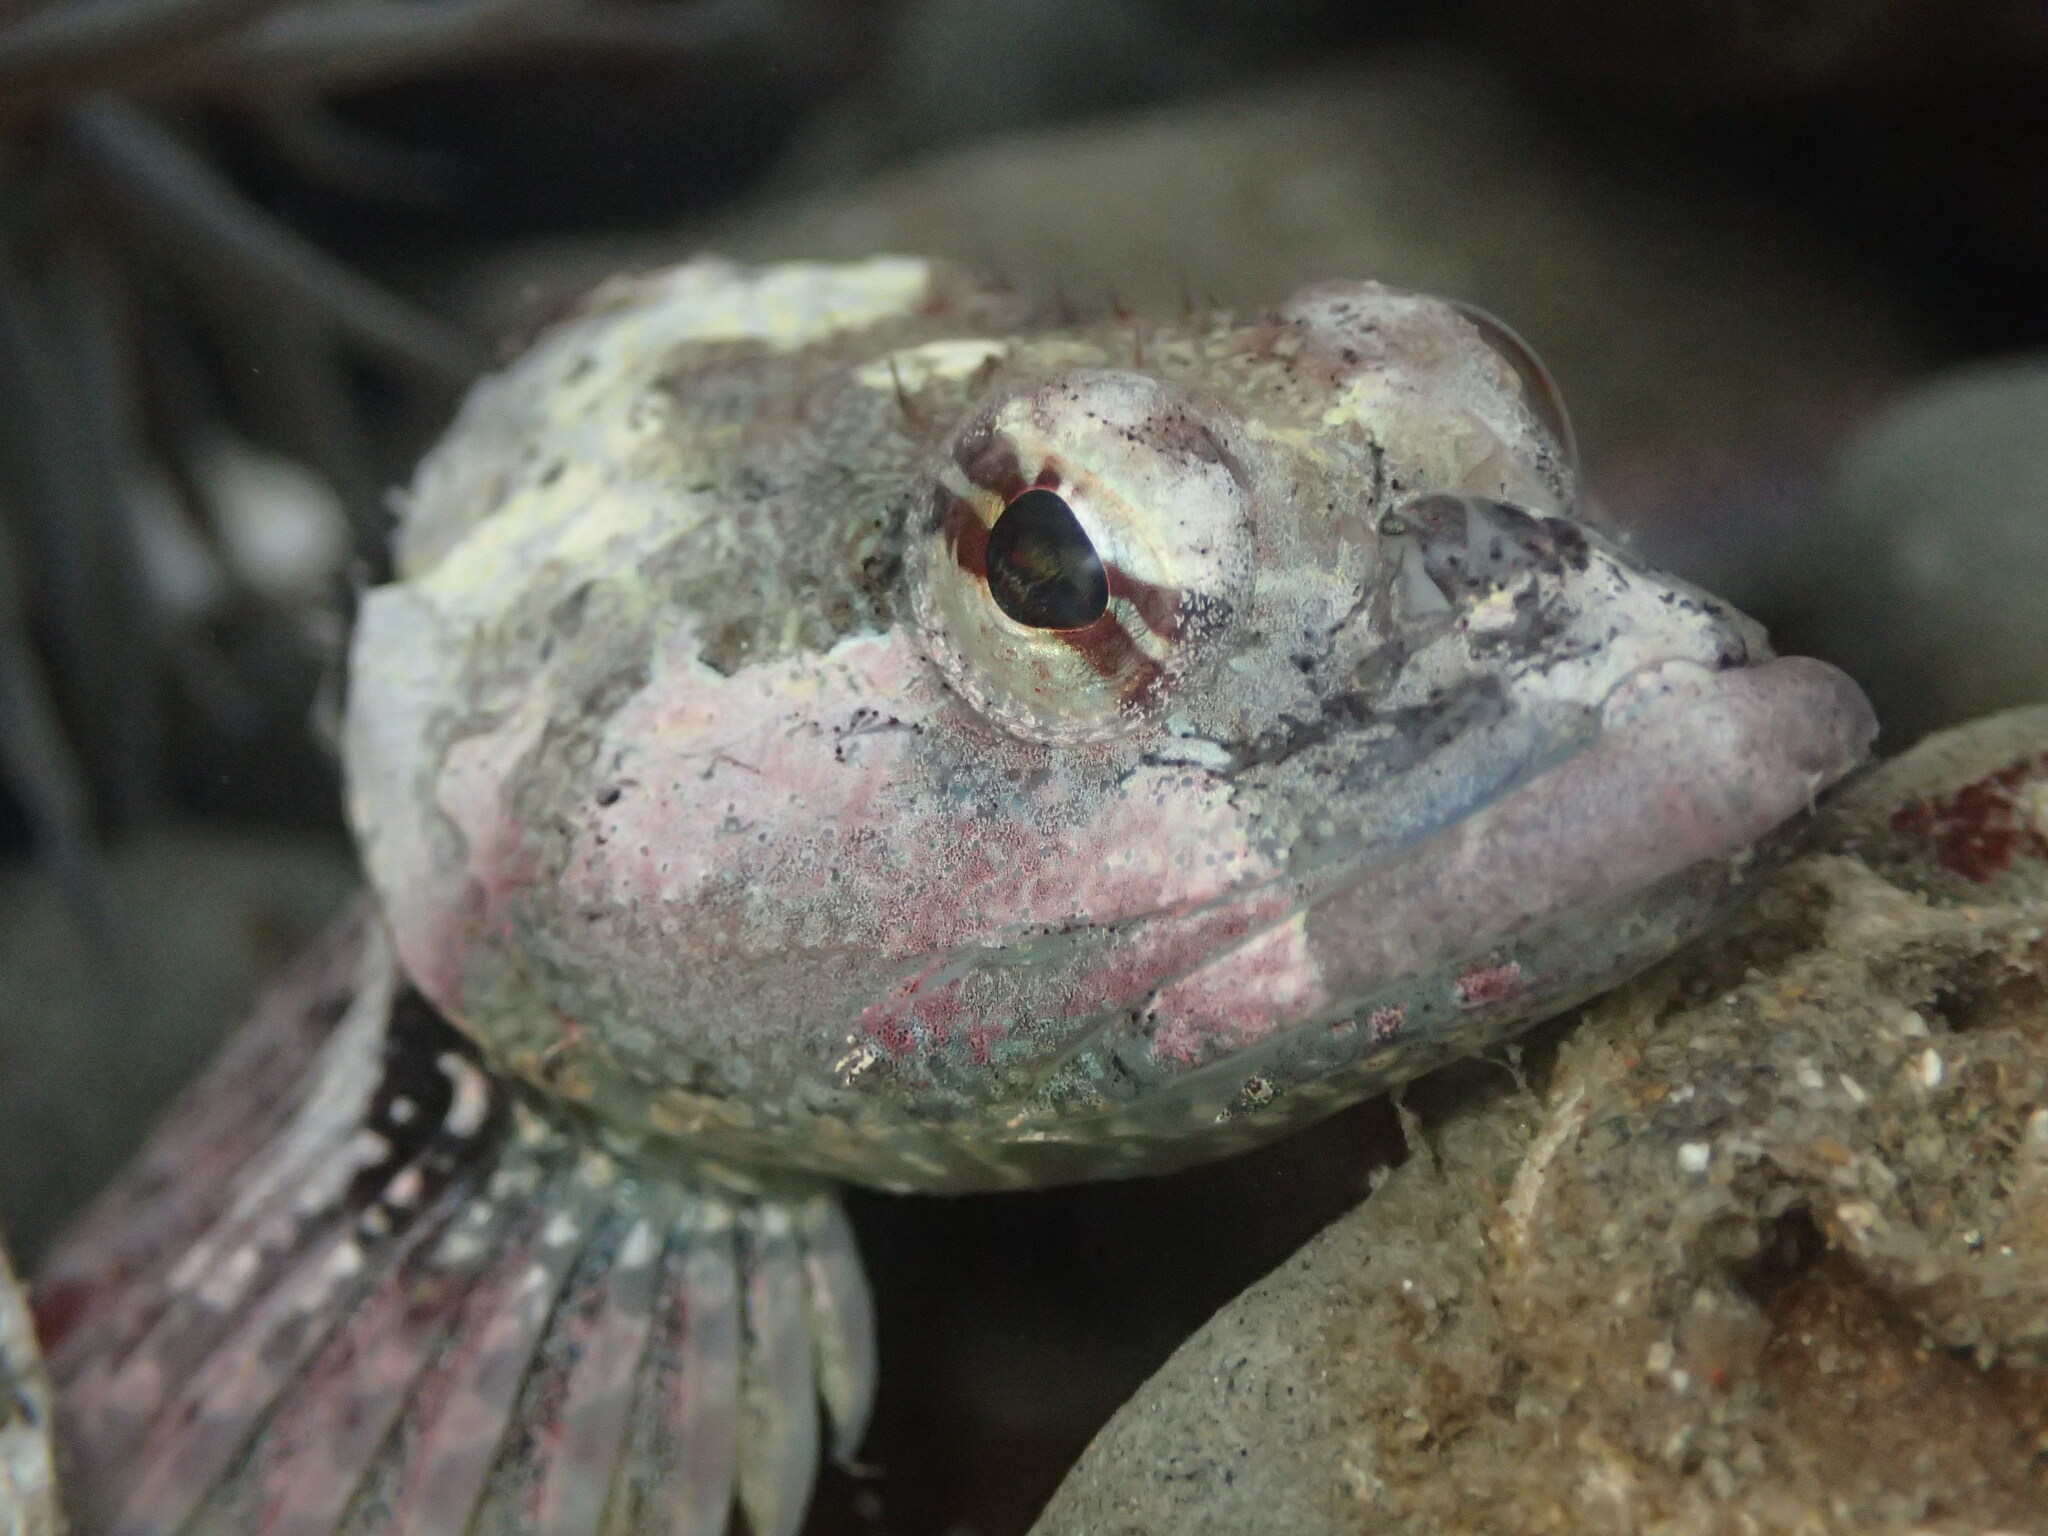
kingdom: Animalia
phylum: Chordata
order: Scorpaeniformes
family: Cottidae
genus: Artedius
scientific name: Artedius lateralis
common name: Smooth-head sculpin
